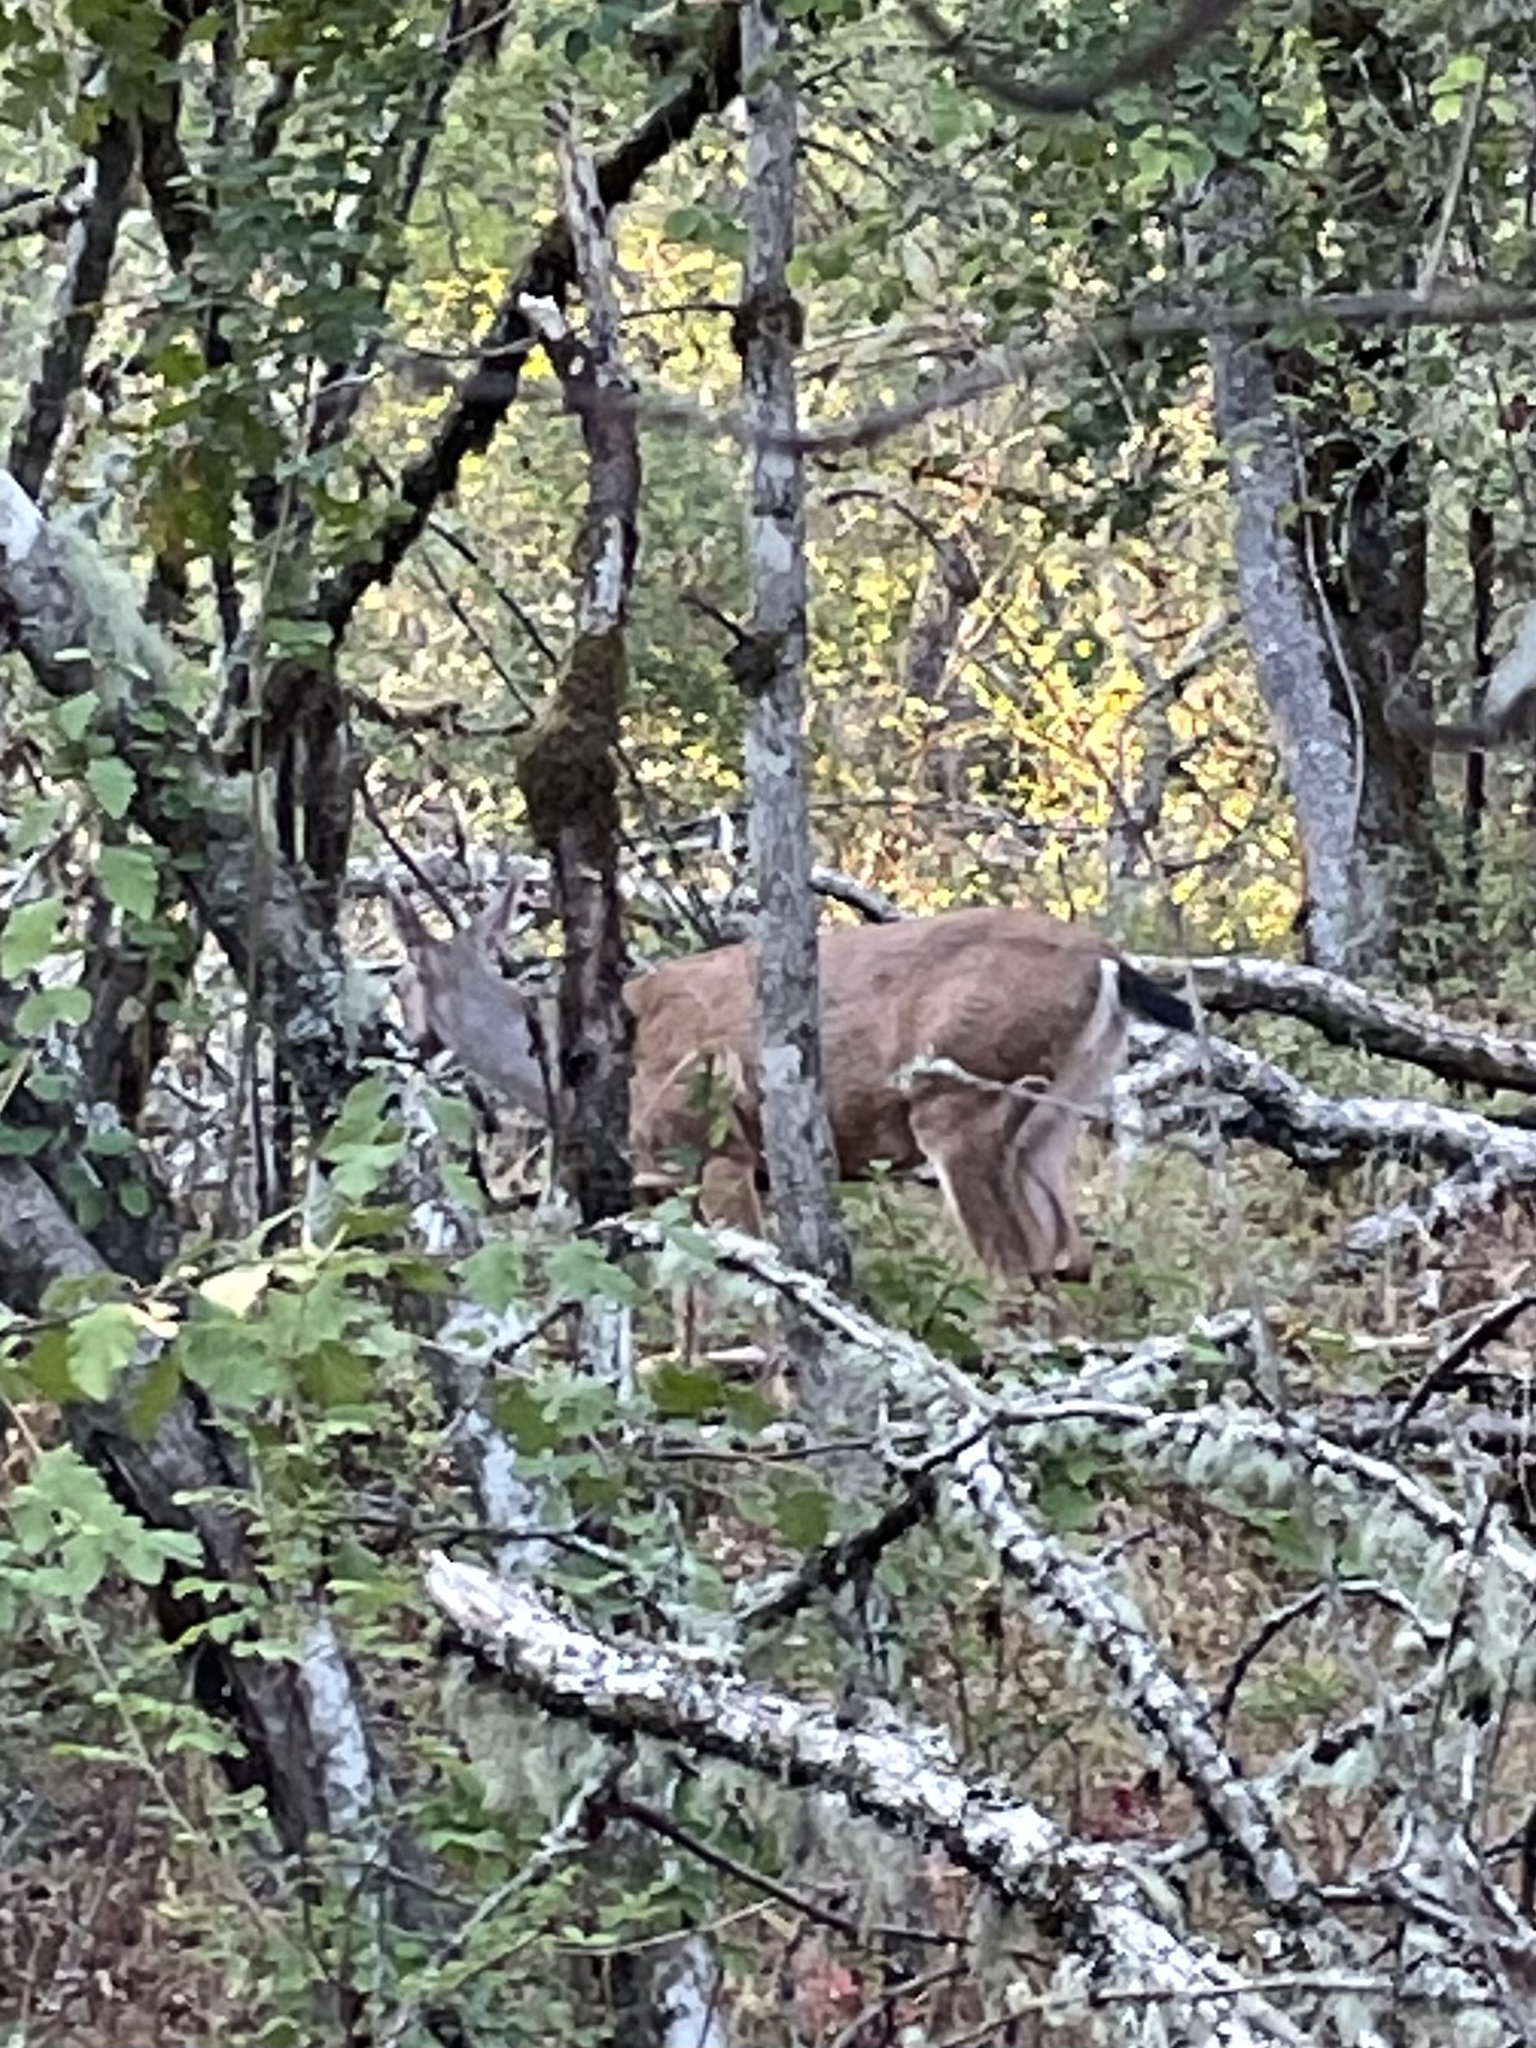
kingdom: Animalia
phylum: Chordata
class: Mammalia
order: Artiodactyla
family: Cervidae
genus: Odocoileus
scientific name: Odocoileus hemionus
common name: Mule deer
